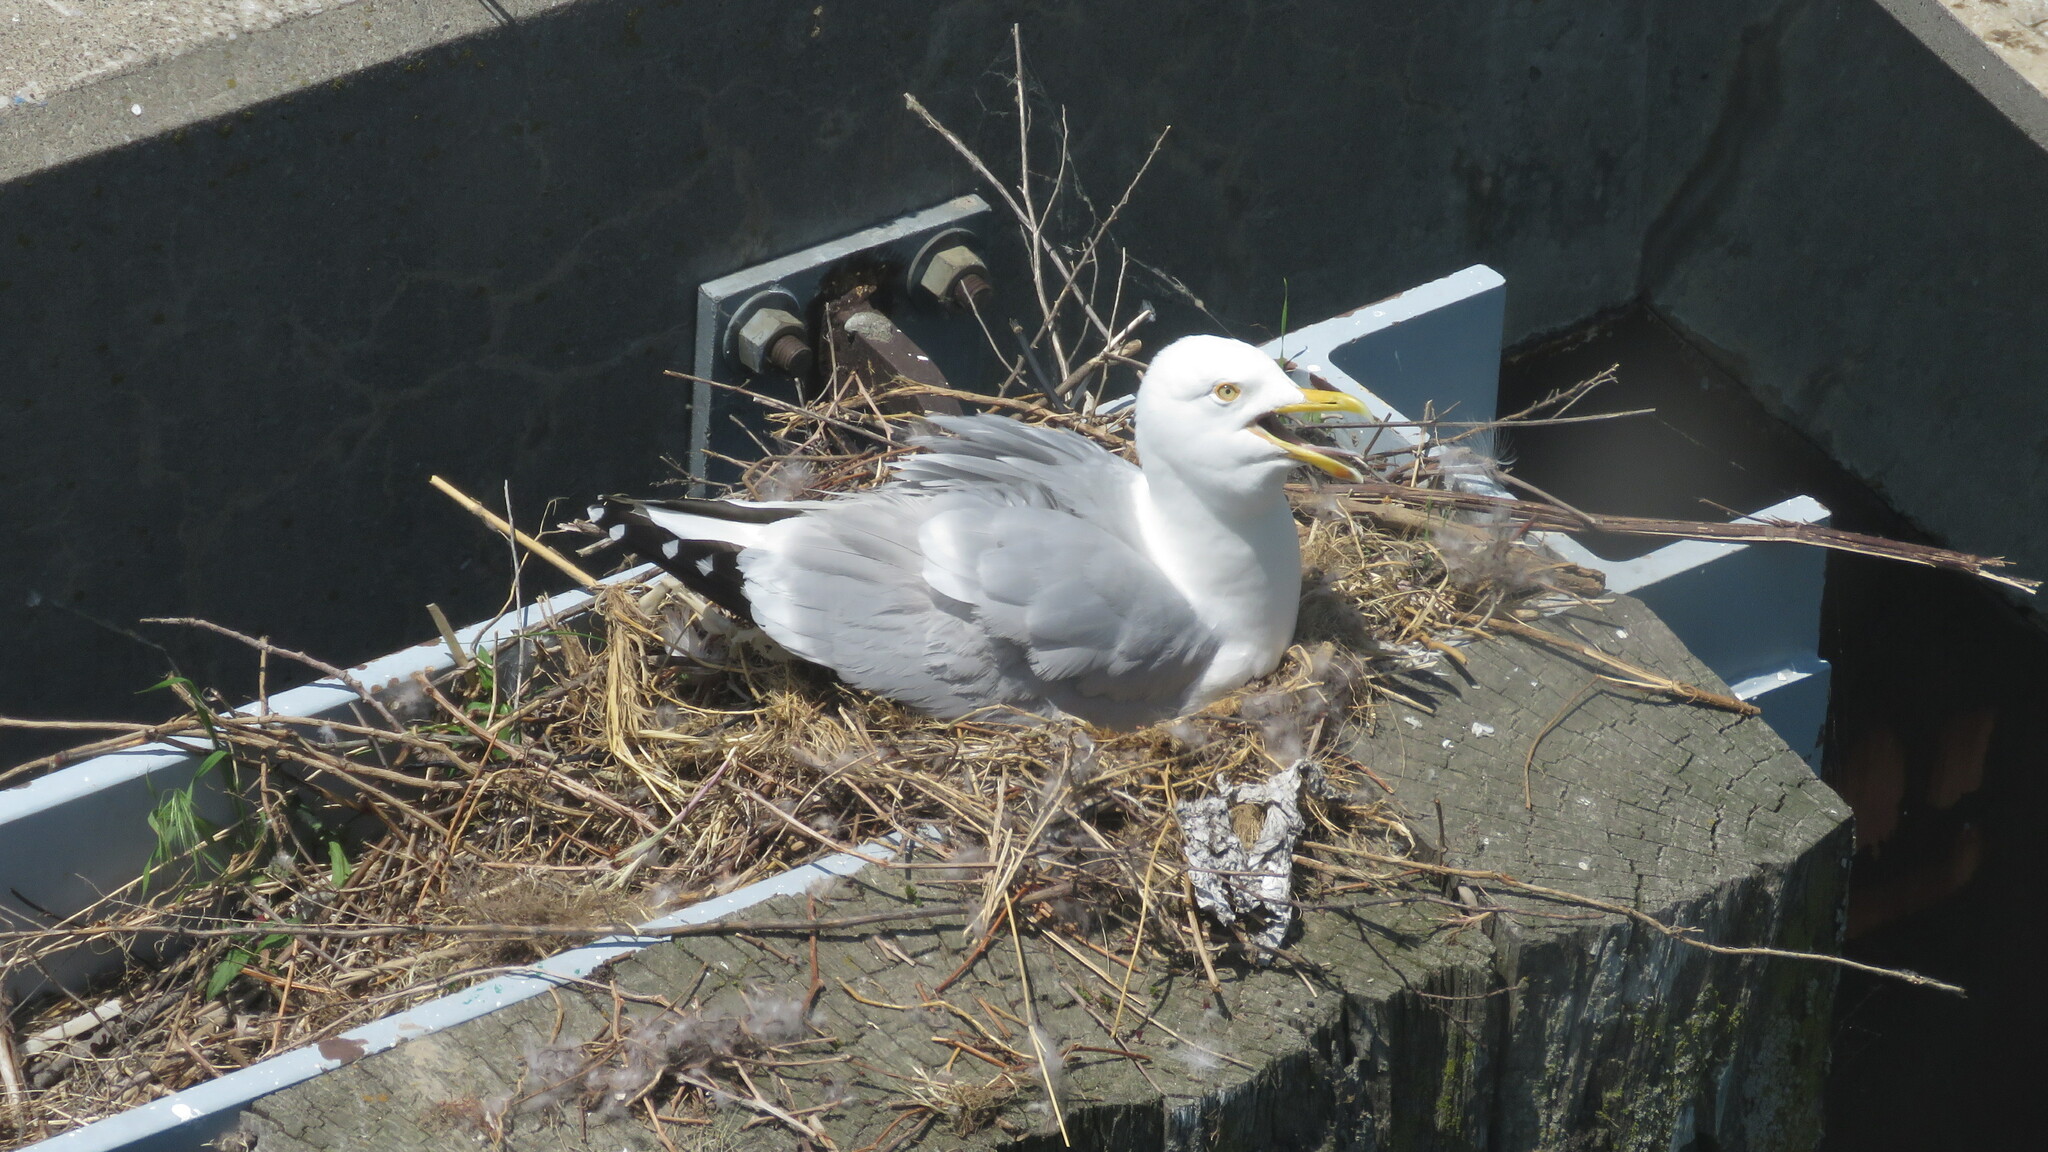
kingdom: Animalia
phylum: Chordata
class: Aves
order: Charadriiformes
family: Laridae
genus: Larus
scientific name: Larus argentatus
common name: Herring gull
